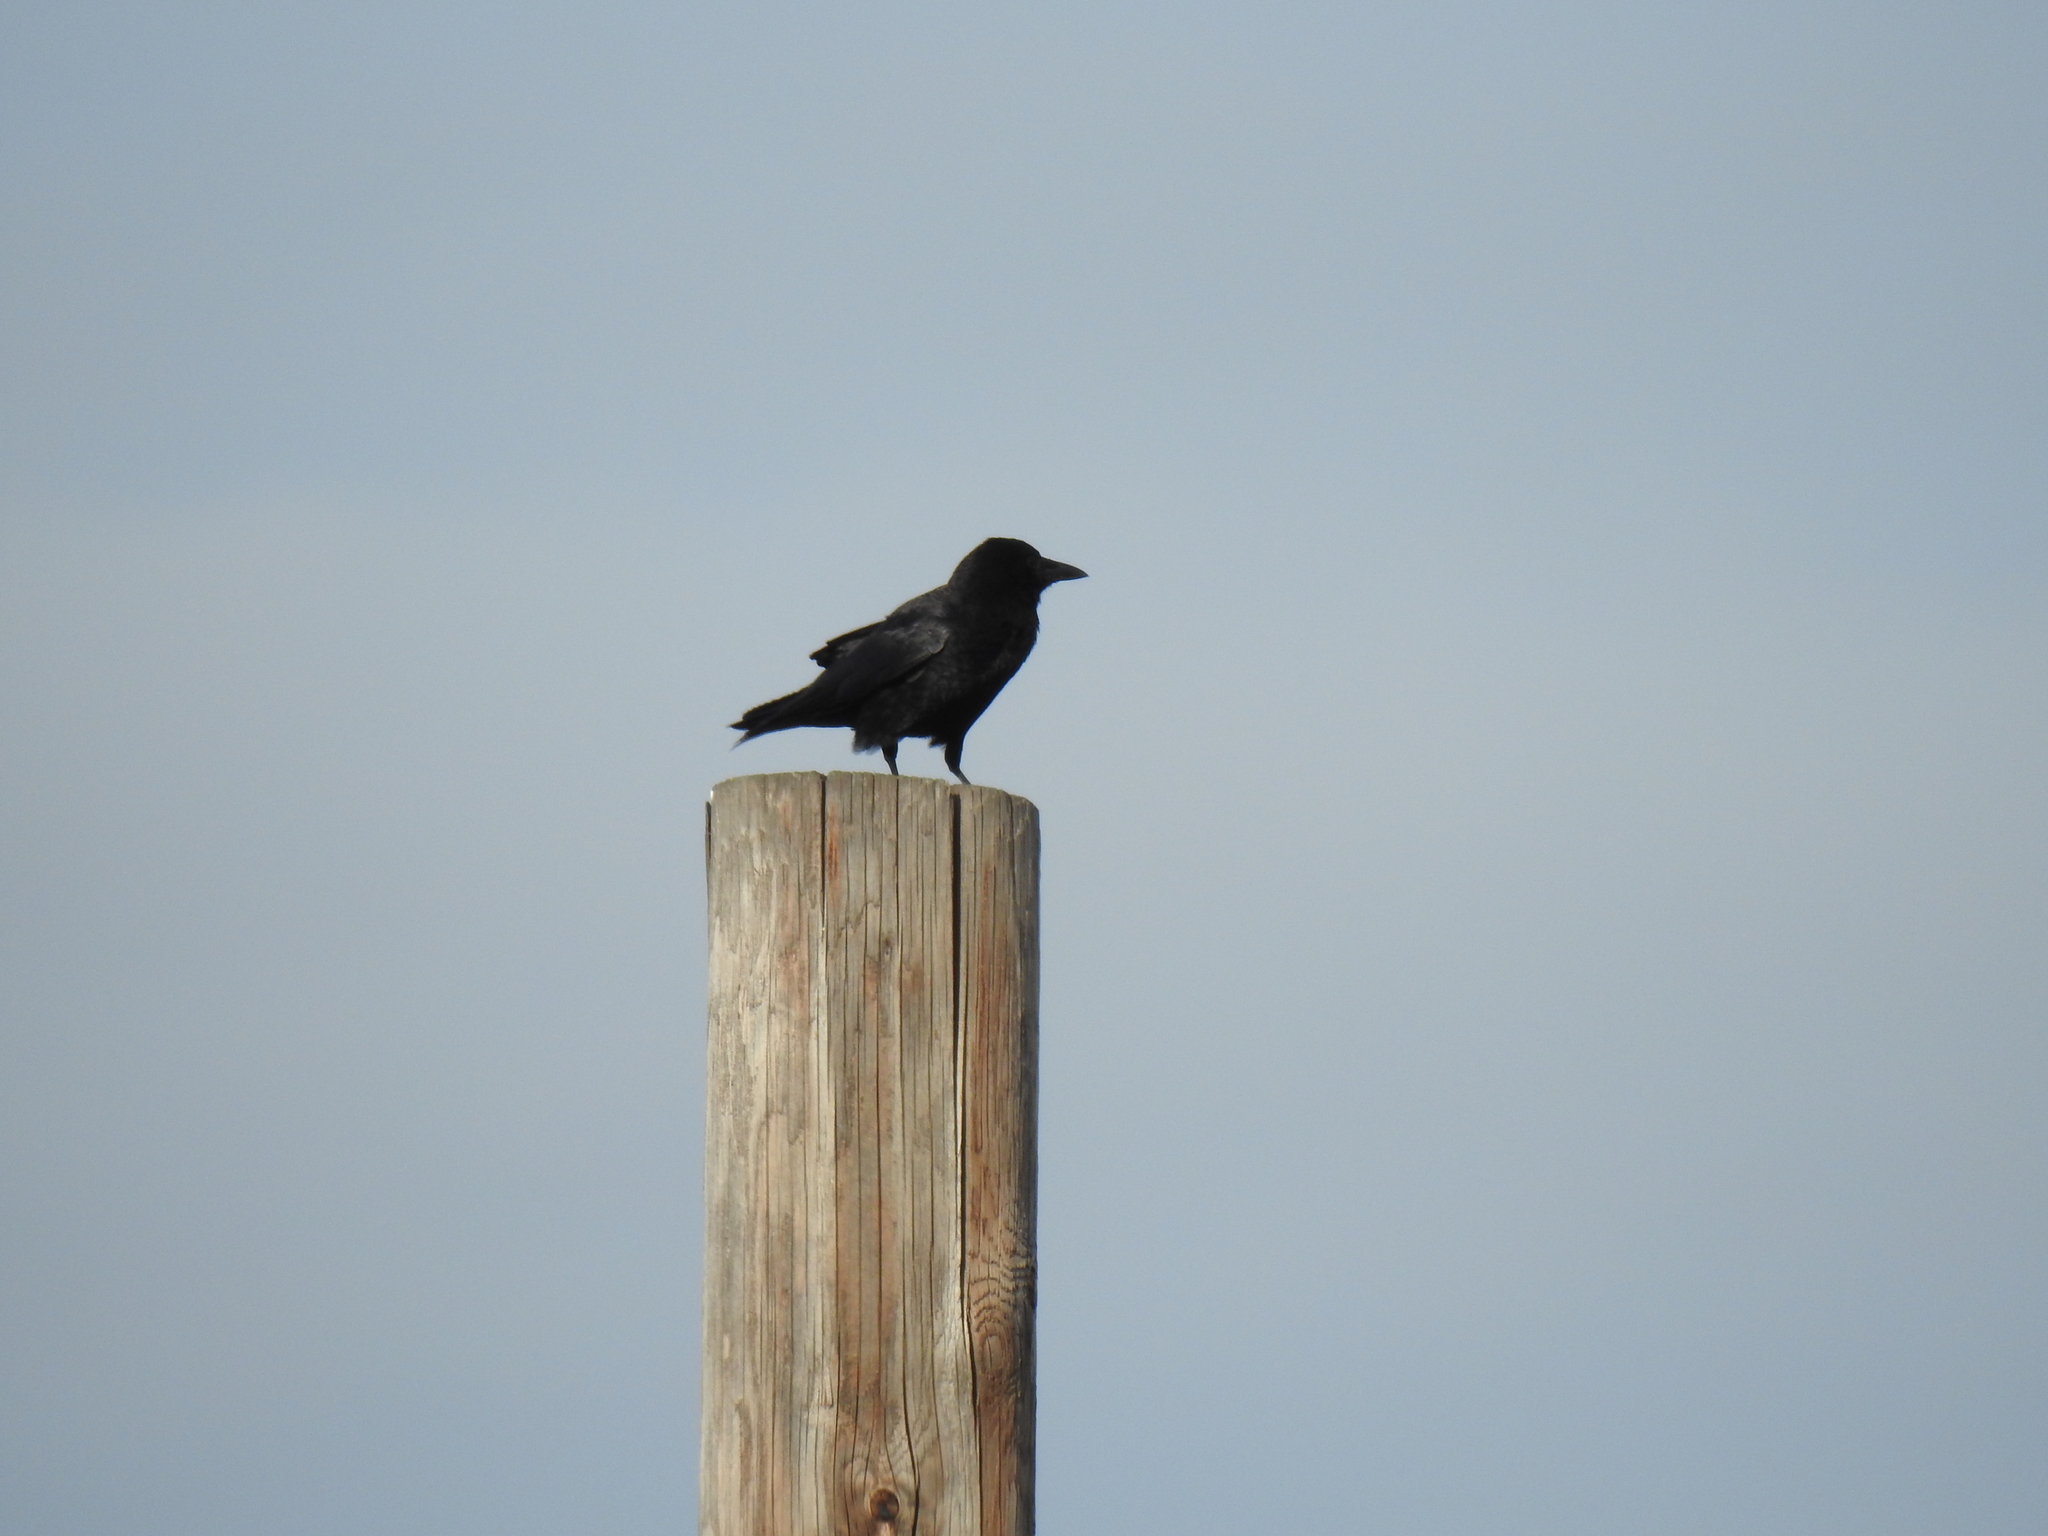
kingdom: Animalia
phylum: Chordata
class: Aves
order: Passeriformes
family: Corvidae
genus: Corvus
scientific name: Corvus brachyrhynchos
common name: American crow
